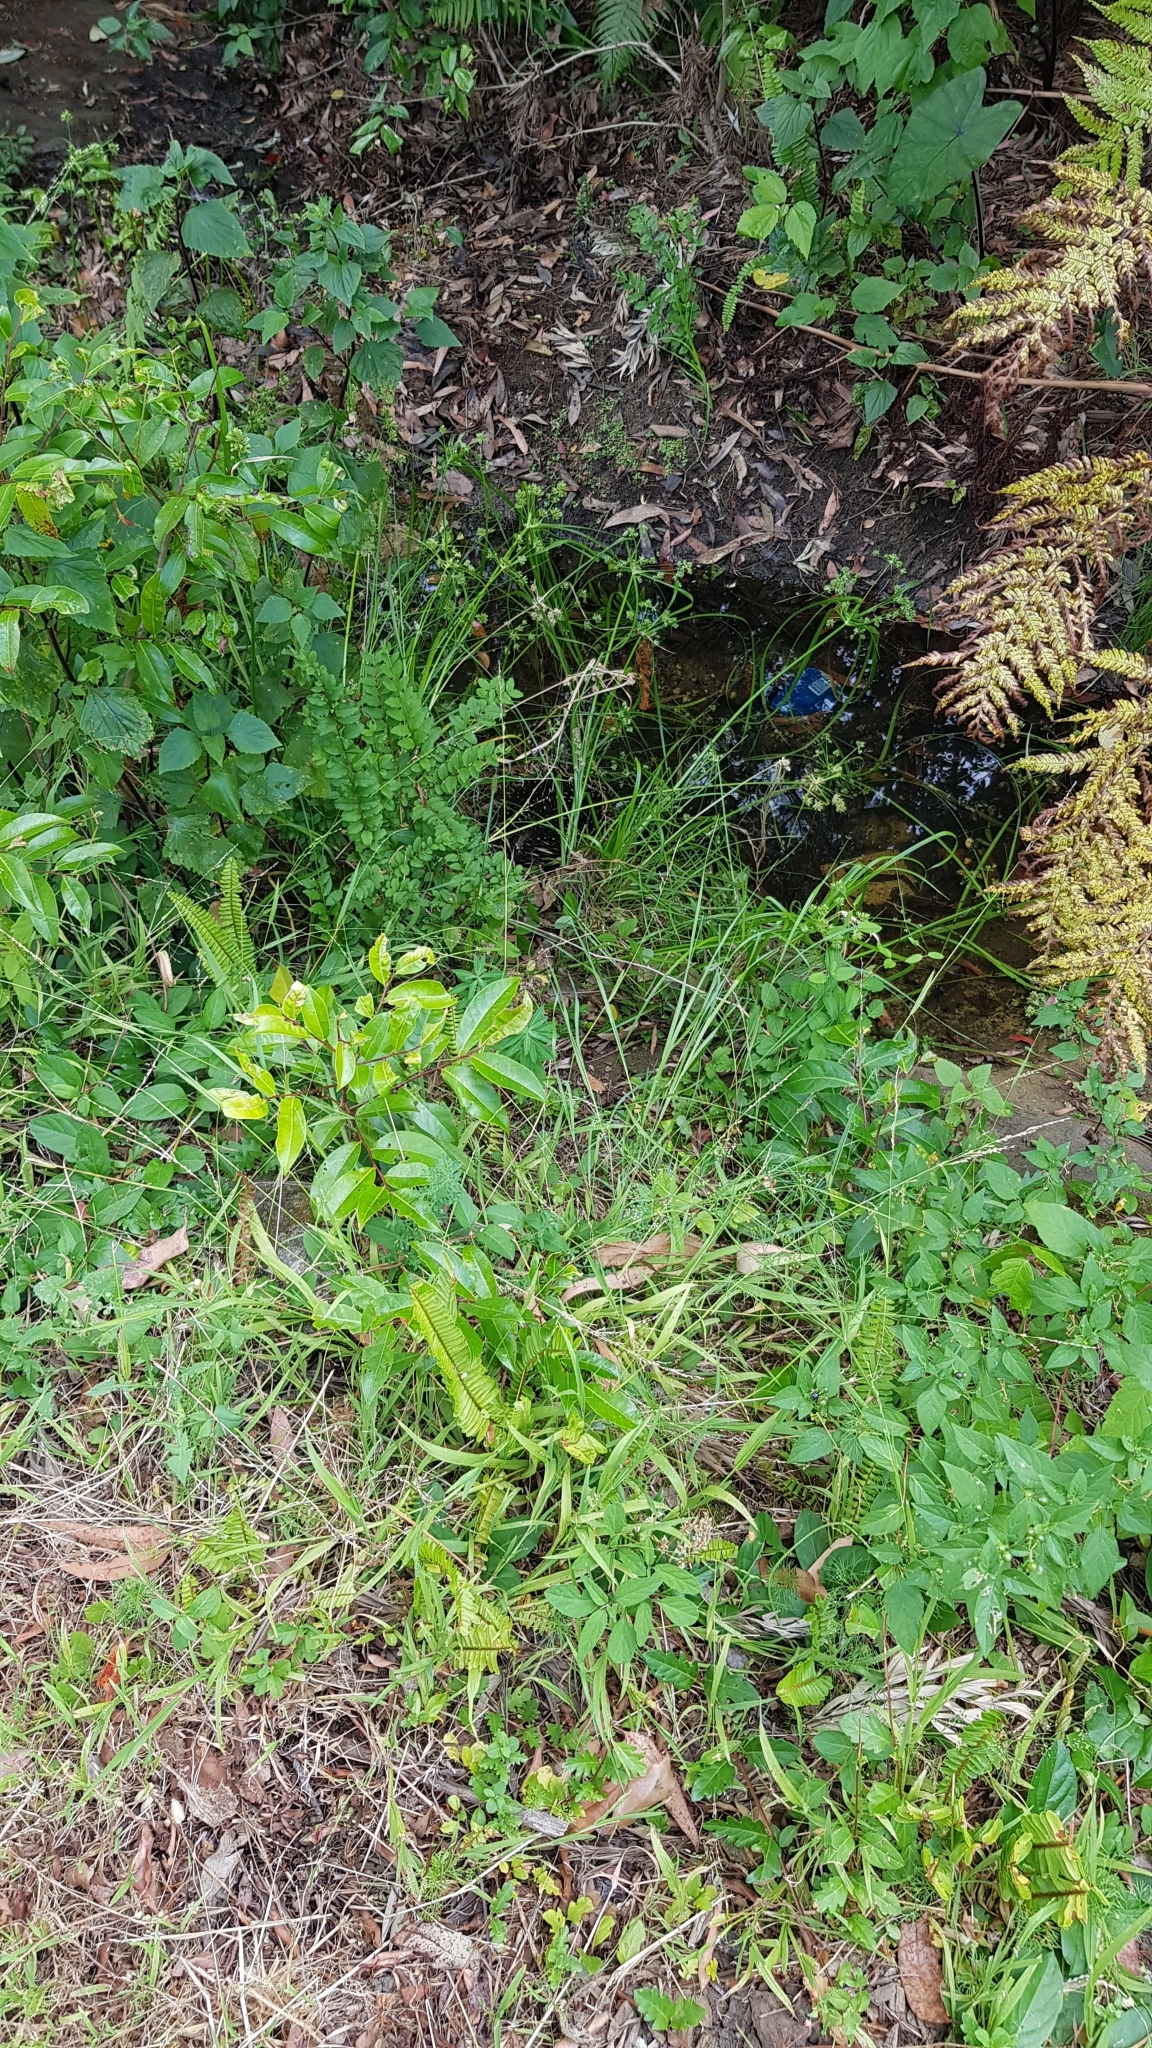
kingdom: Animalia
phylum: Chordata
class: Mammalia
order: Monotremata
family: Tachyglossidae
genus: Tachyglossus
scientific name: Tachyglossus aculeatus
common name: Short-beaked echidna
